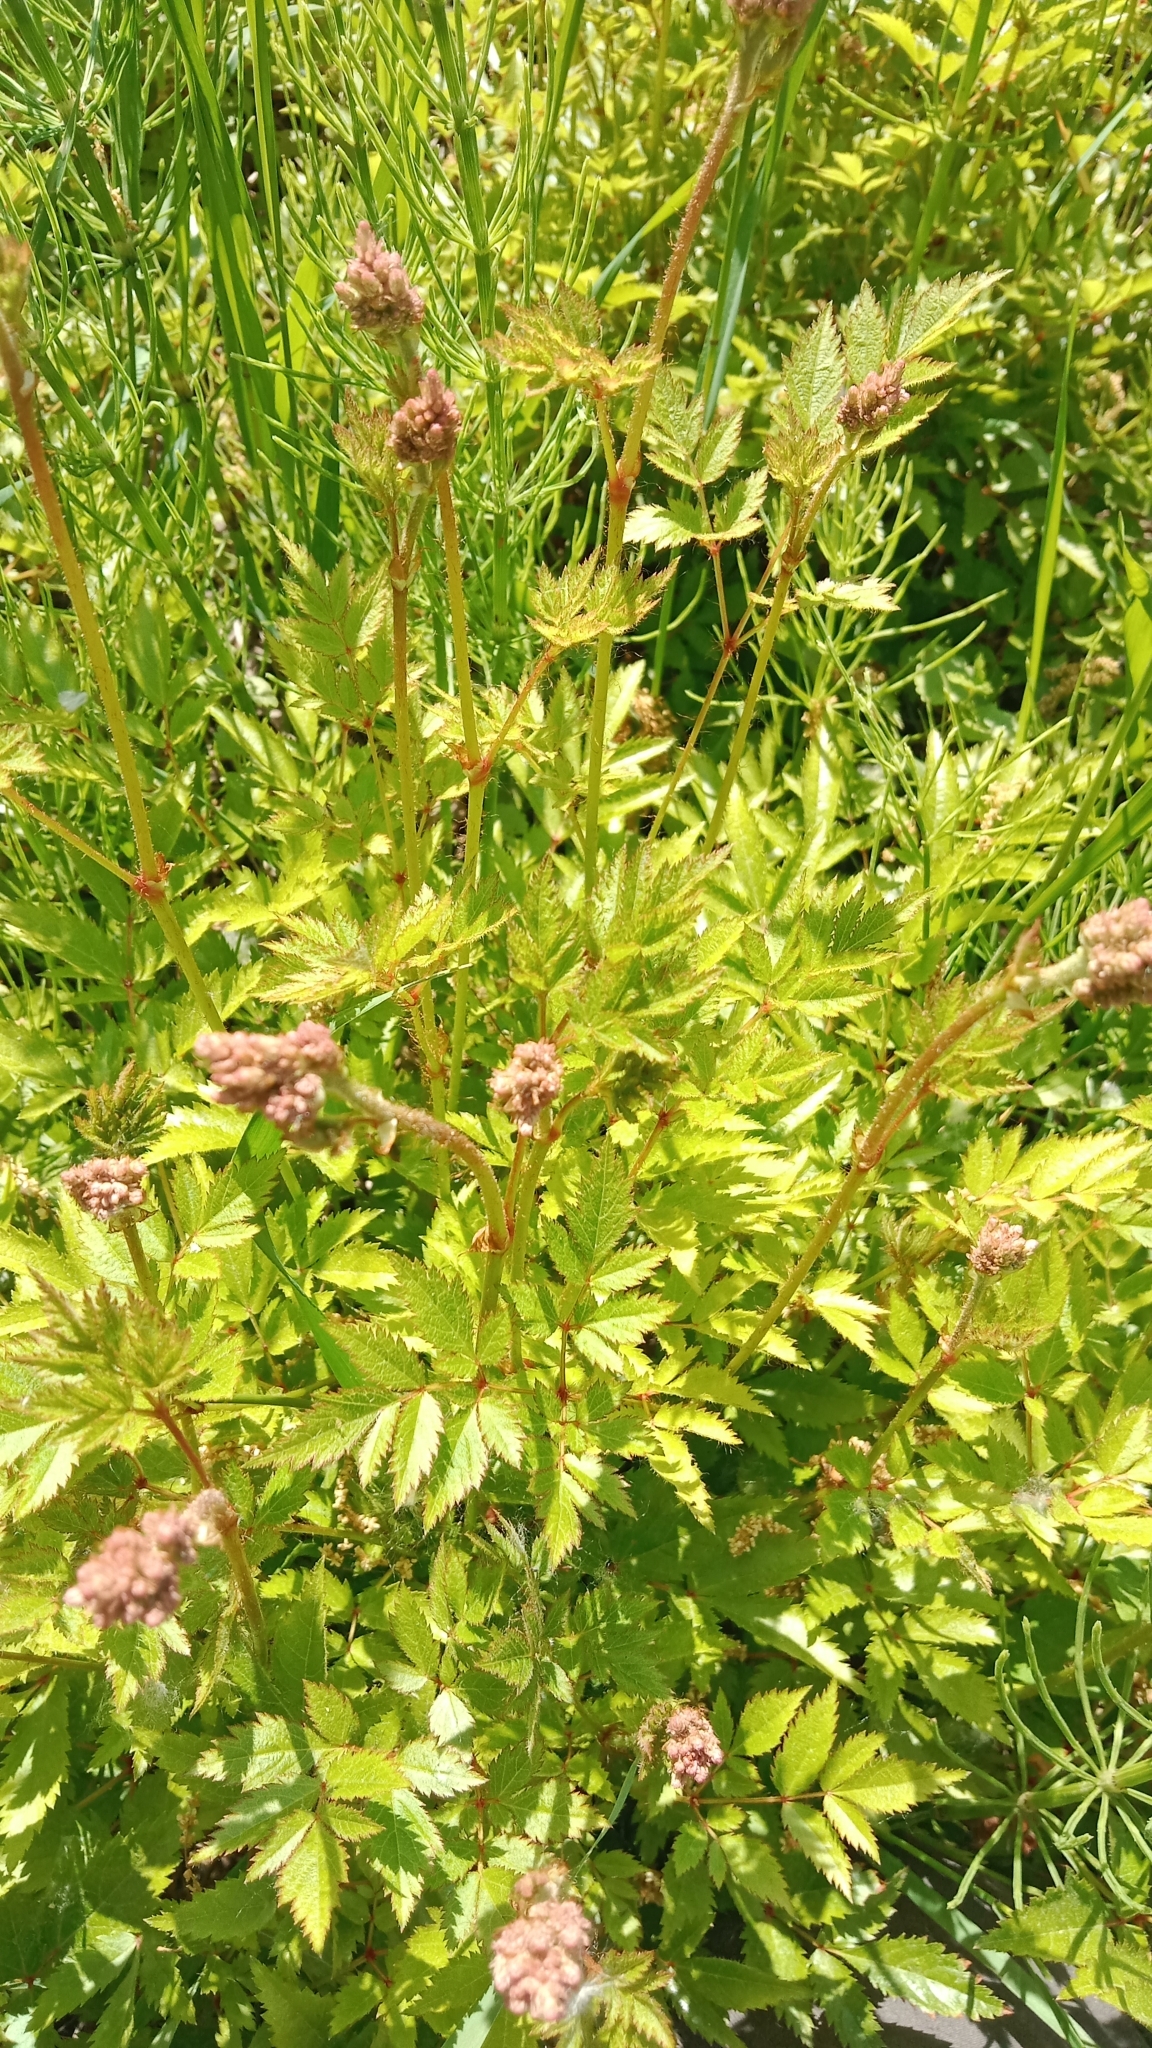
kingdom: Plantae
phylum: Tracheophyta
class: Magnoliopsida
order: Rosales
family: Rosaceae
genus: Poterium
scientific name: Poterium sanguisorba
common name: Salad burnet
